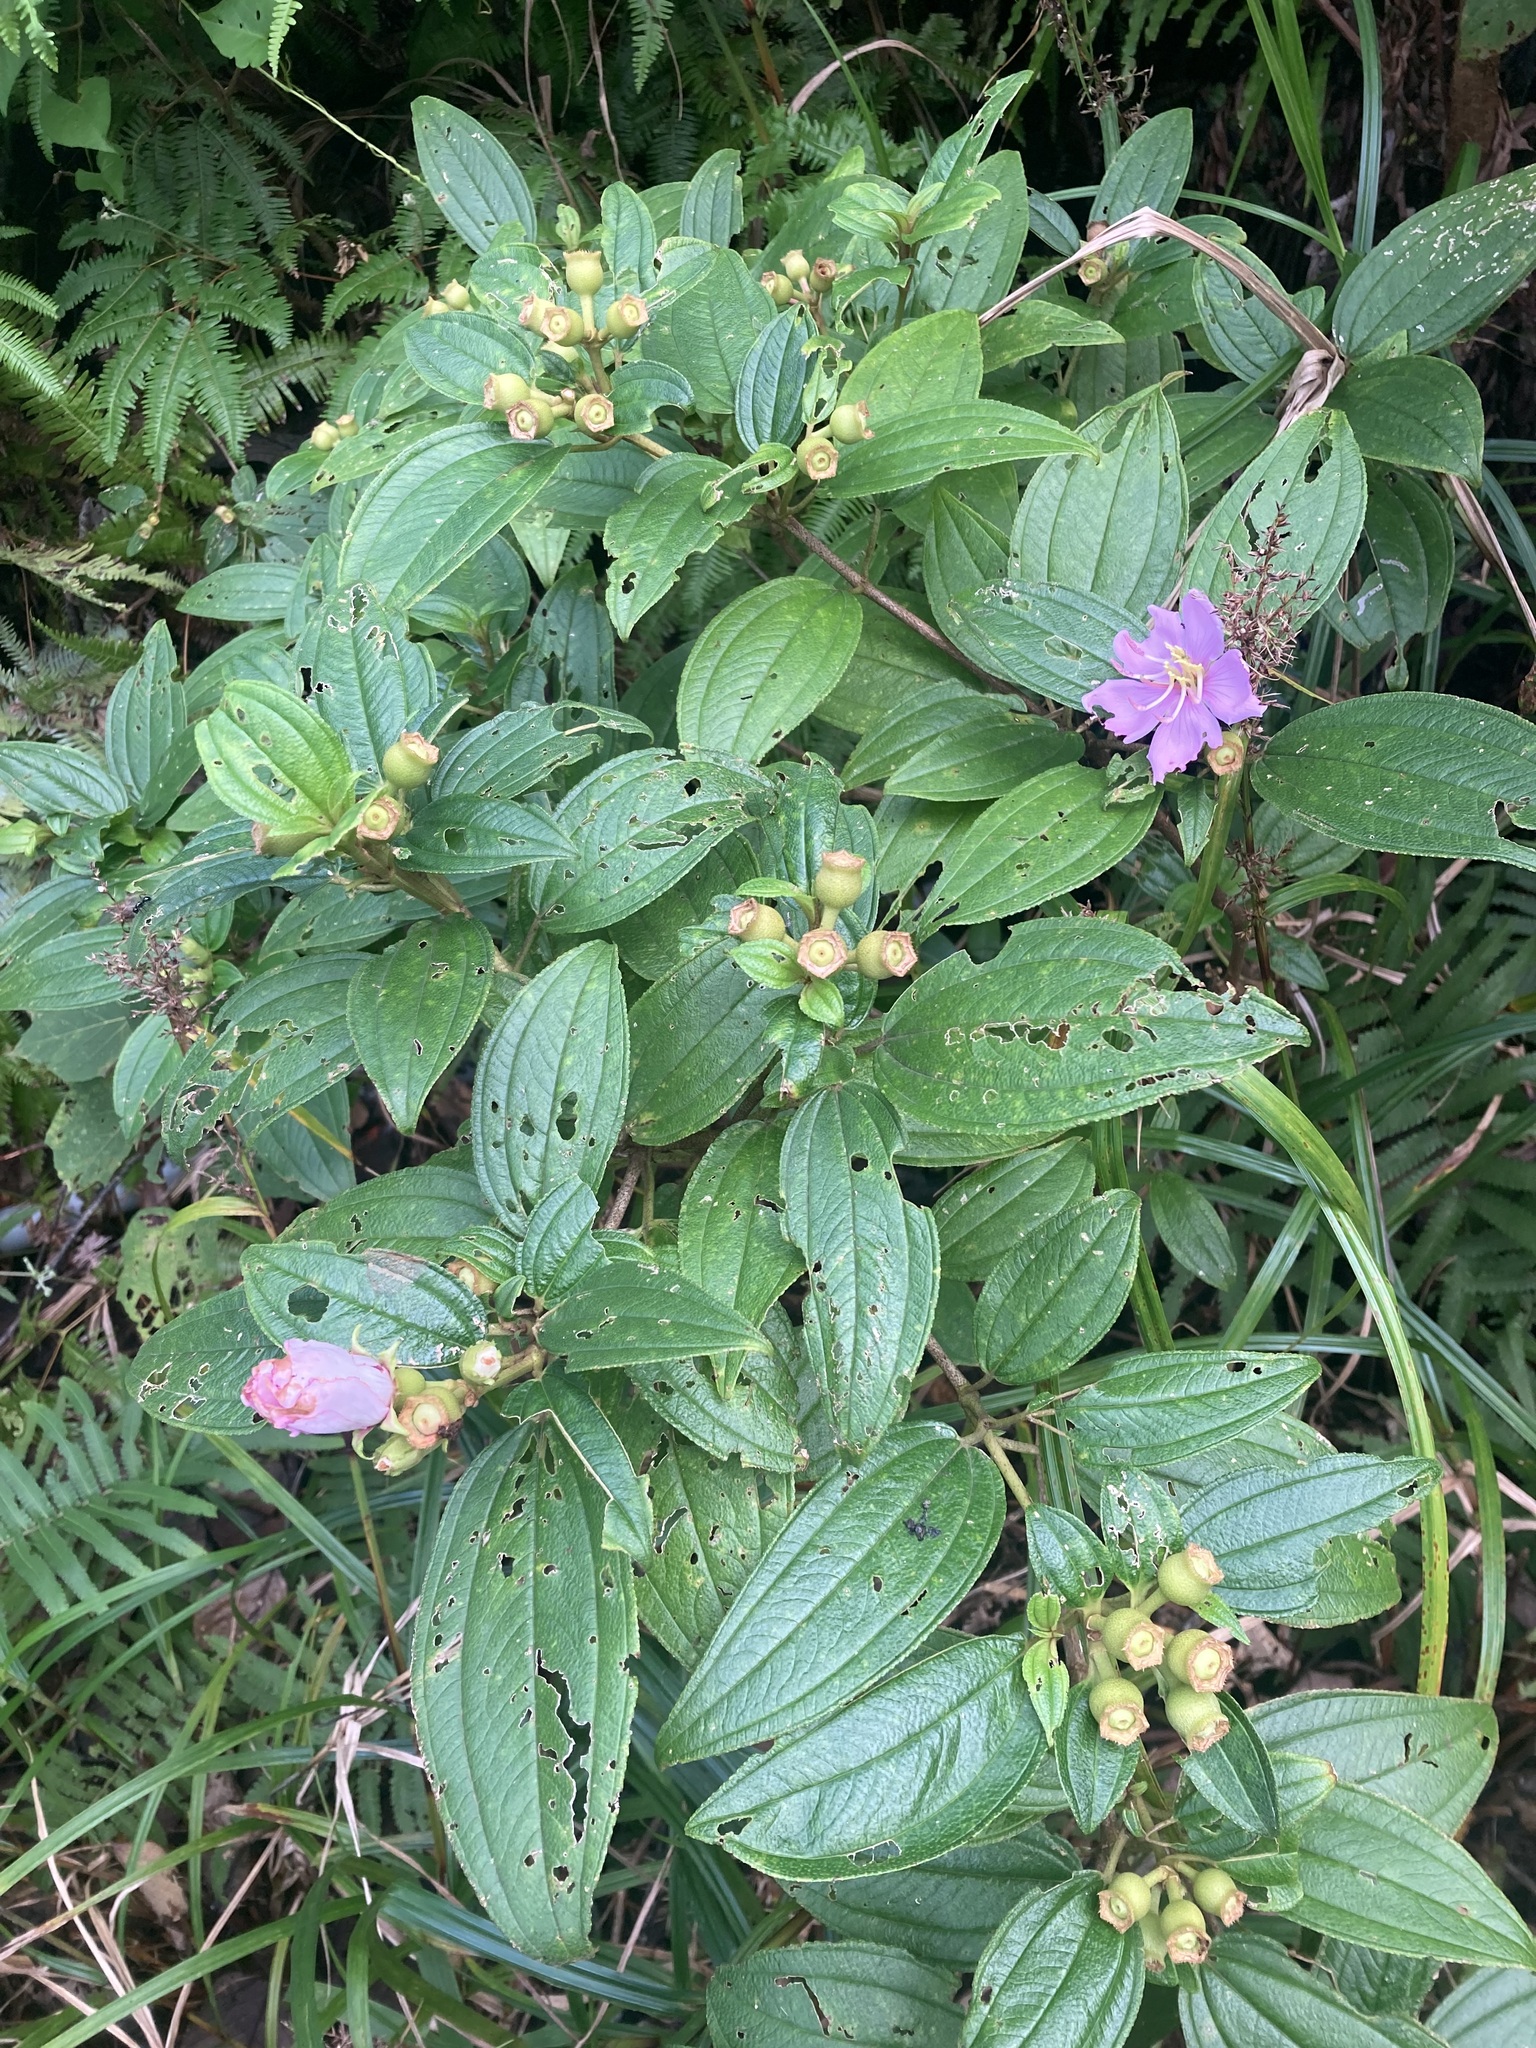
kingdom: Plantae
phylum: Tracheophyta
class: Magnoliopsida
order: Myrtales
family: Melastomataceae
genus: Melastoma
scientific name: Melastoma malabathricum
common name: Indian-rhododendron
